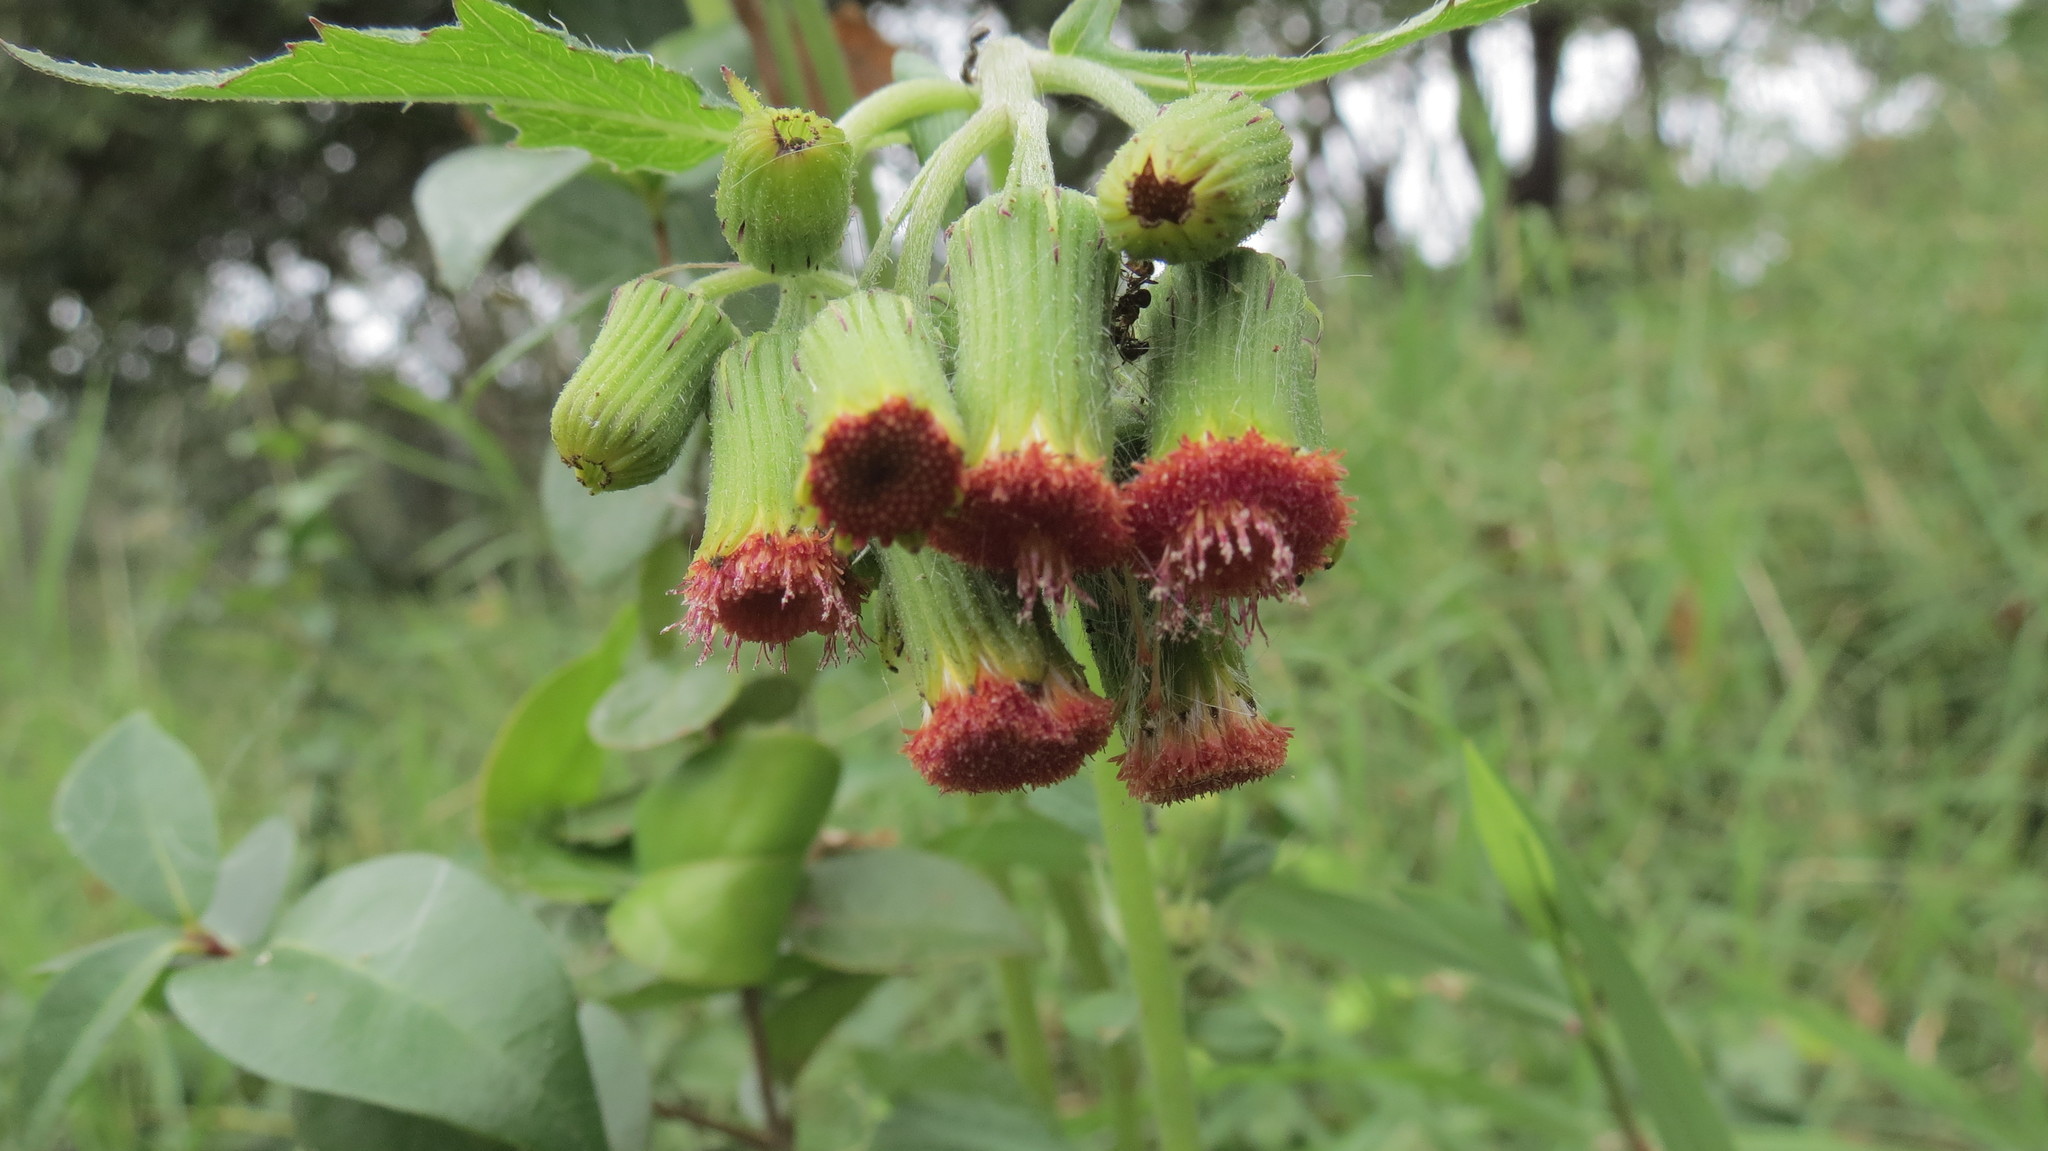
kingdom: Plantae
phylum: Tracheophyta
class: Magnoliopsida
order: Asterales
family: Asteraceae
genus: Crassocephalum
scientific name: Crassocephalum crepidioides
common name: Redflower ragleaf
